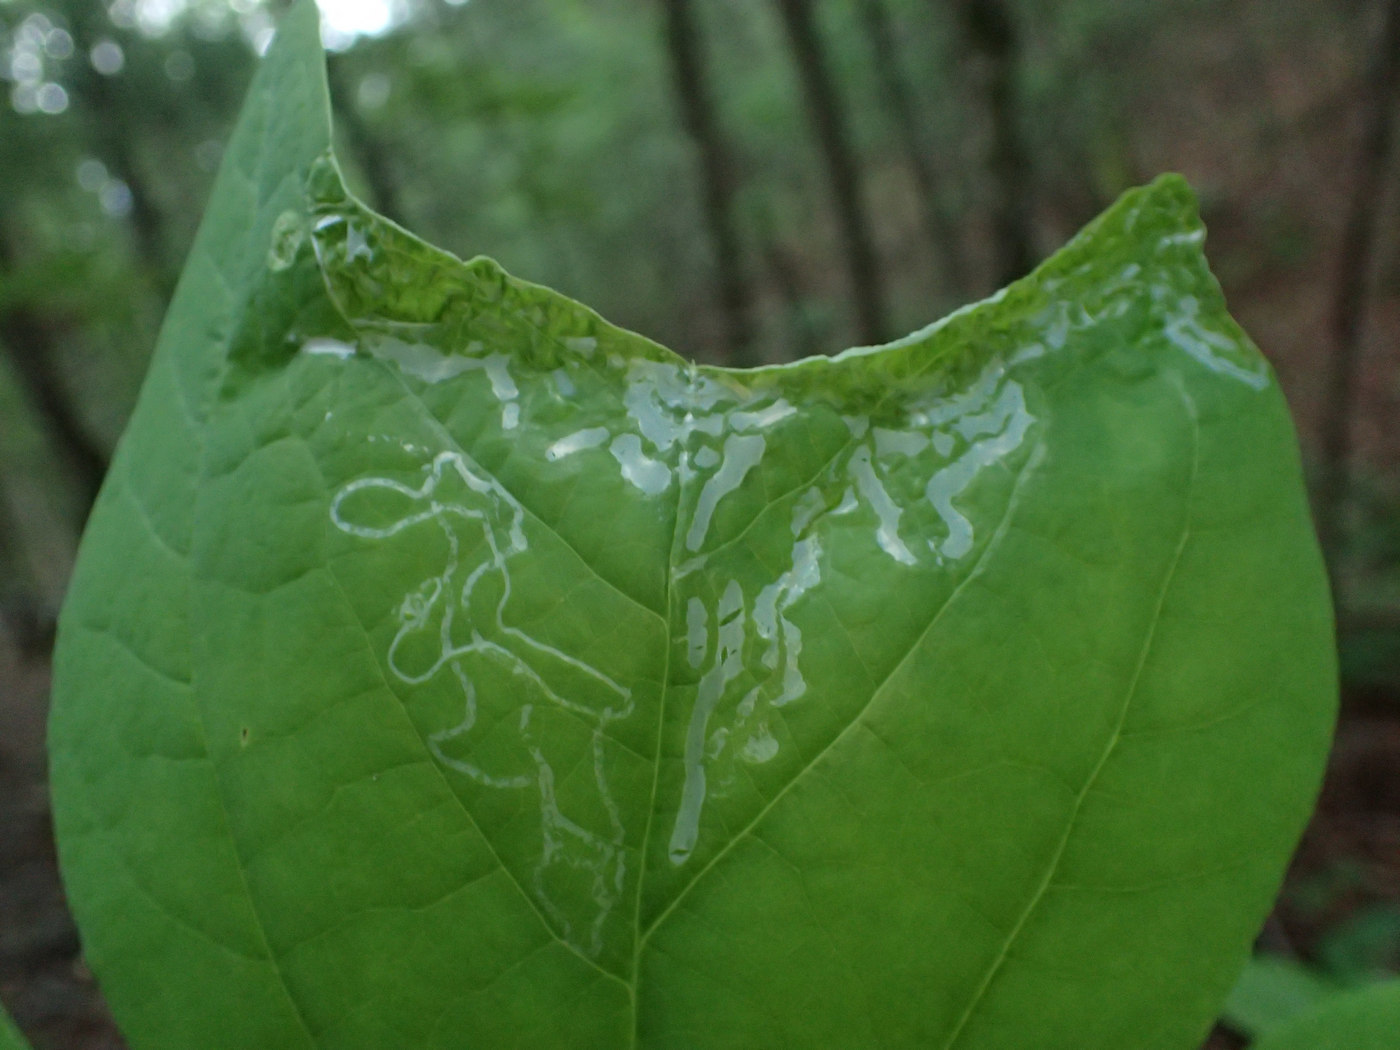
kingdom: Animalia
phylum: Arthropoda
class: Insecta
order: Lepidoptera
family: Gracillariidae
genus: Phyllocnistis
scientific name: Phyllocnistis liriodendronella
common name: Tulip tree leaf miner
